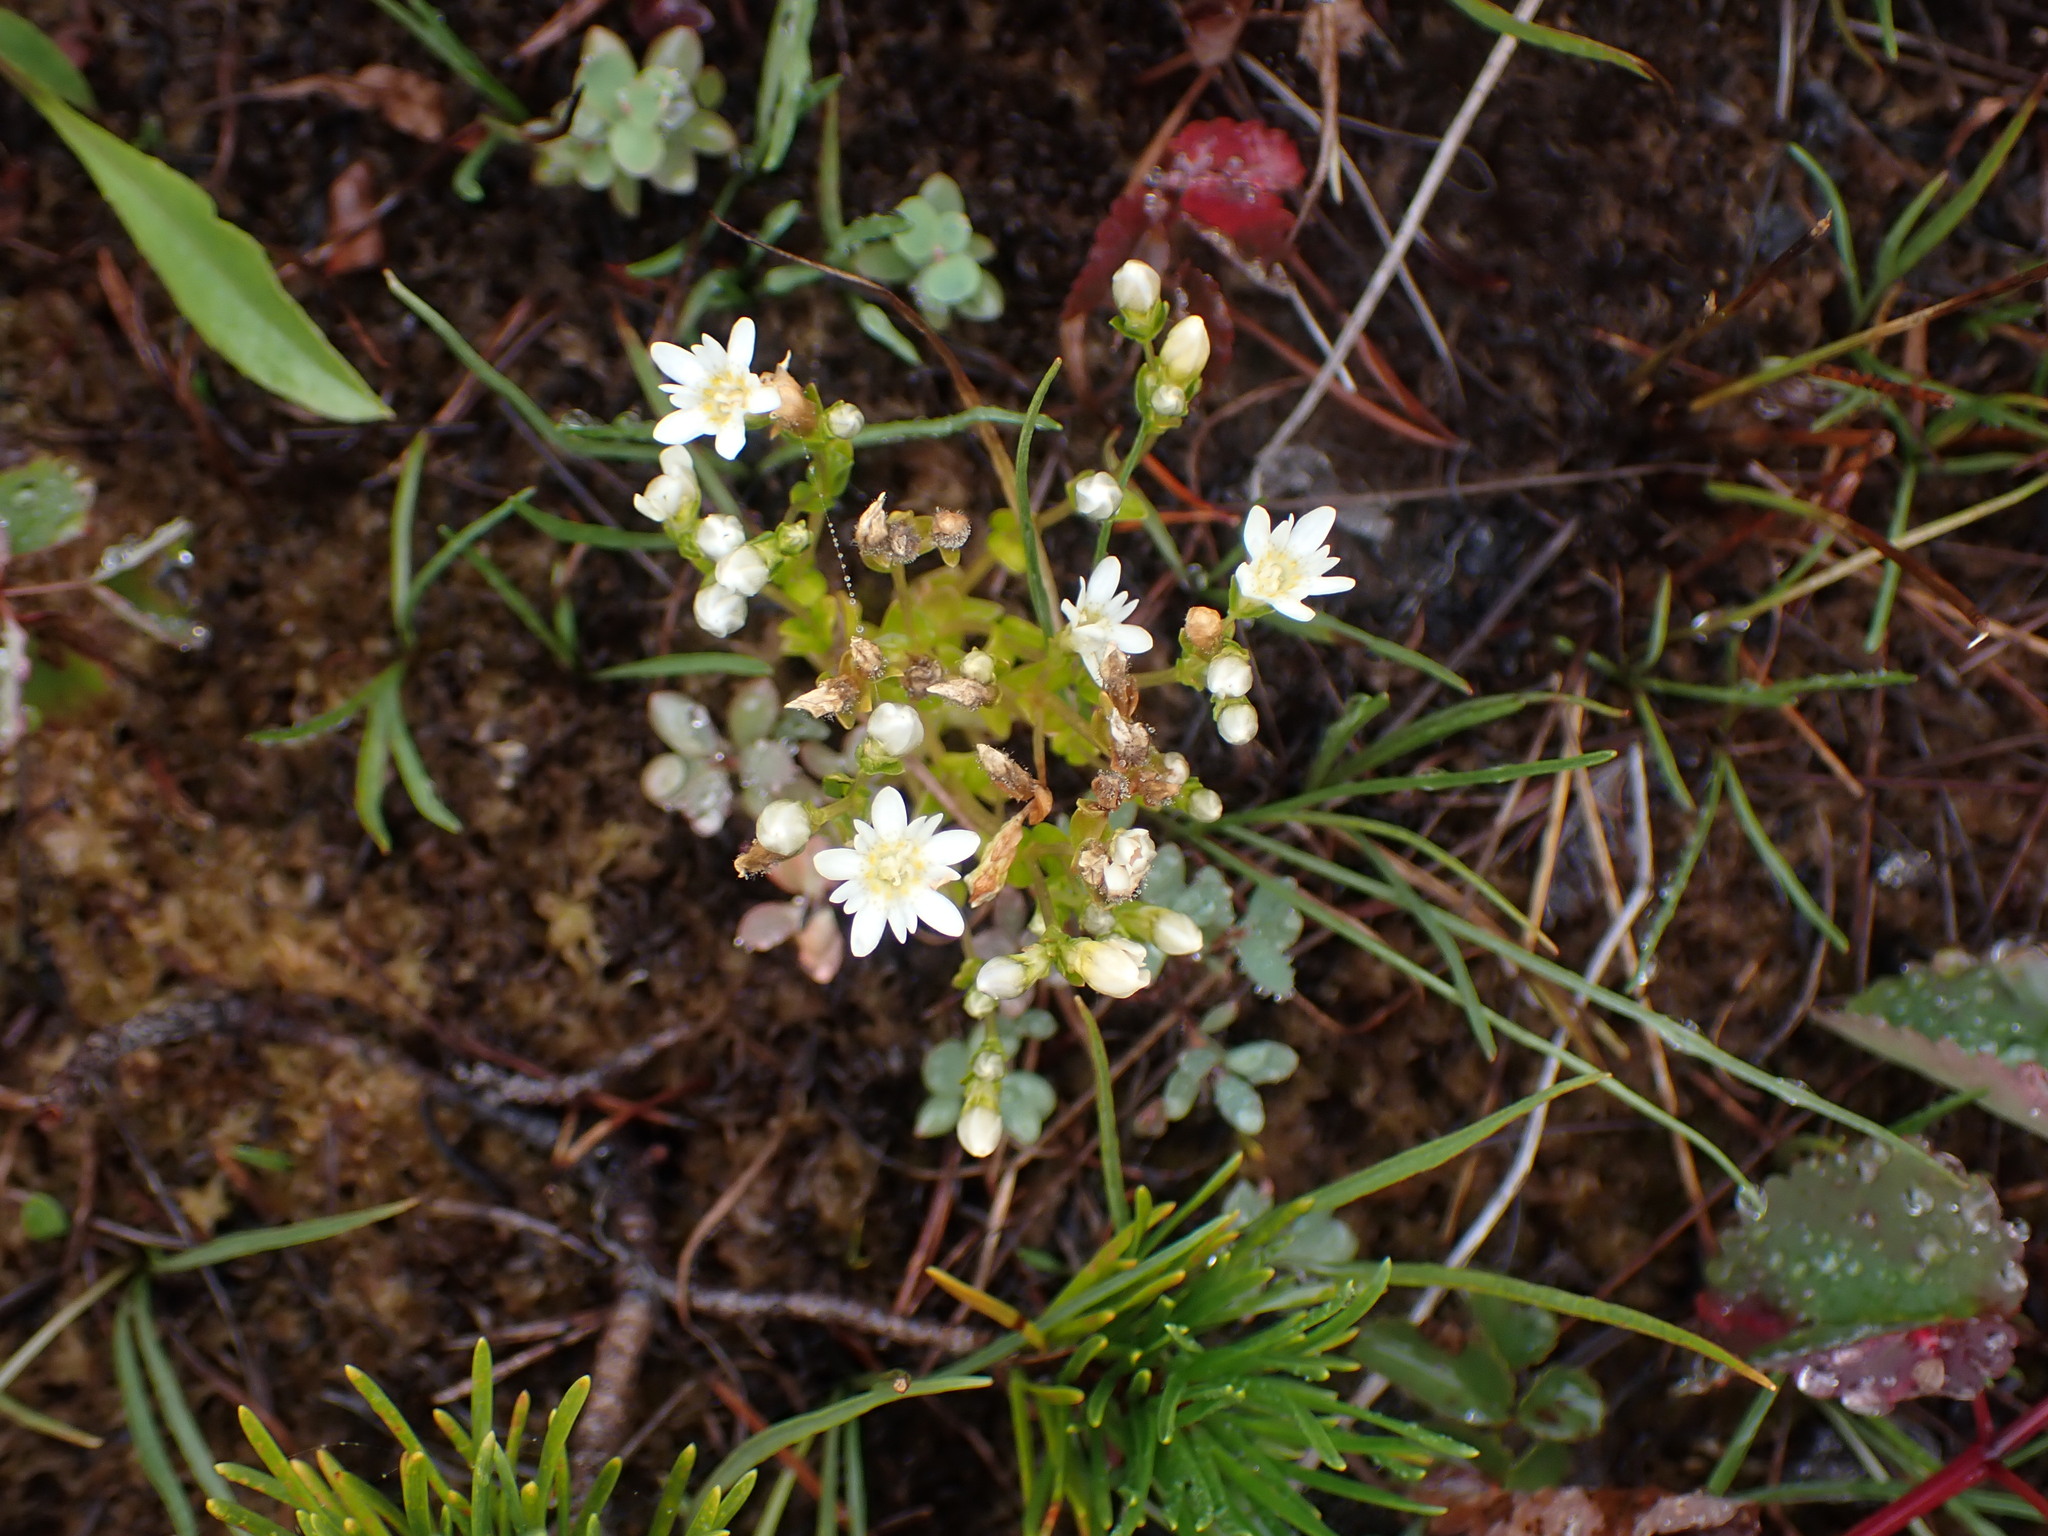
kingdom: Plantae
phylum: Tracheophyta
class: Magnoliopsida
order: Gentianales
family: Gentianaceae
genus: Gentiana
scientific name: Gentiana douglasiana
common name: Swamp gentian
